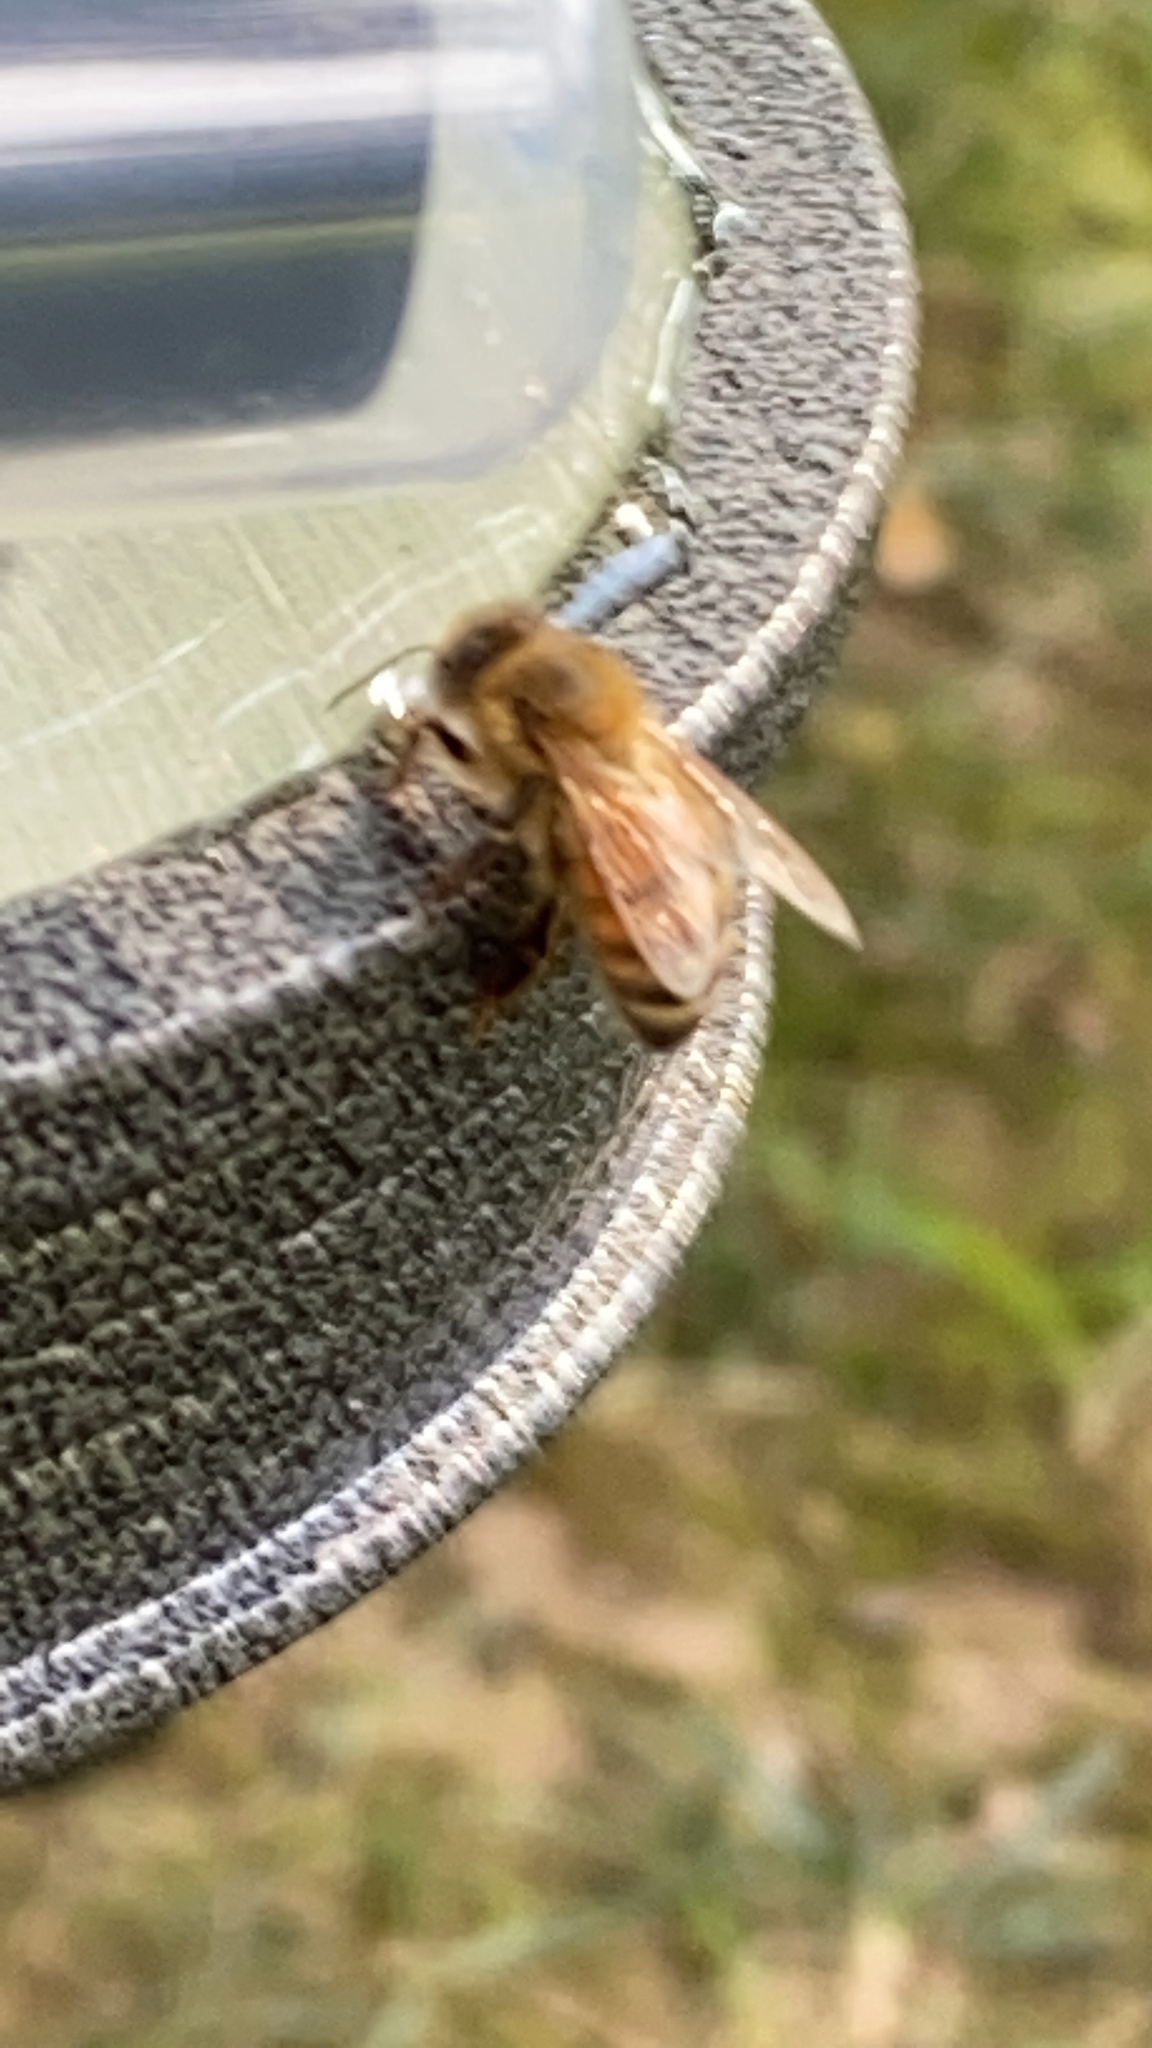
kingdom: Animalia
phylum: Arthropoda
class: Insecta
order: Hymenoptera
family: Apidae
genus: Apis
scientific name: Apis mellifera
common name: Honey bee
